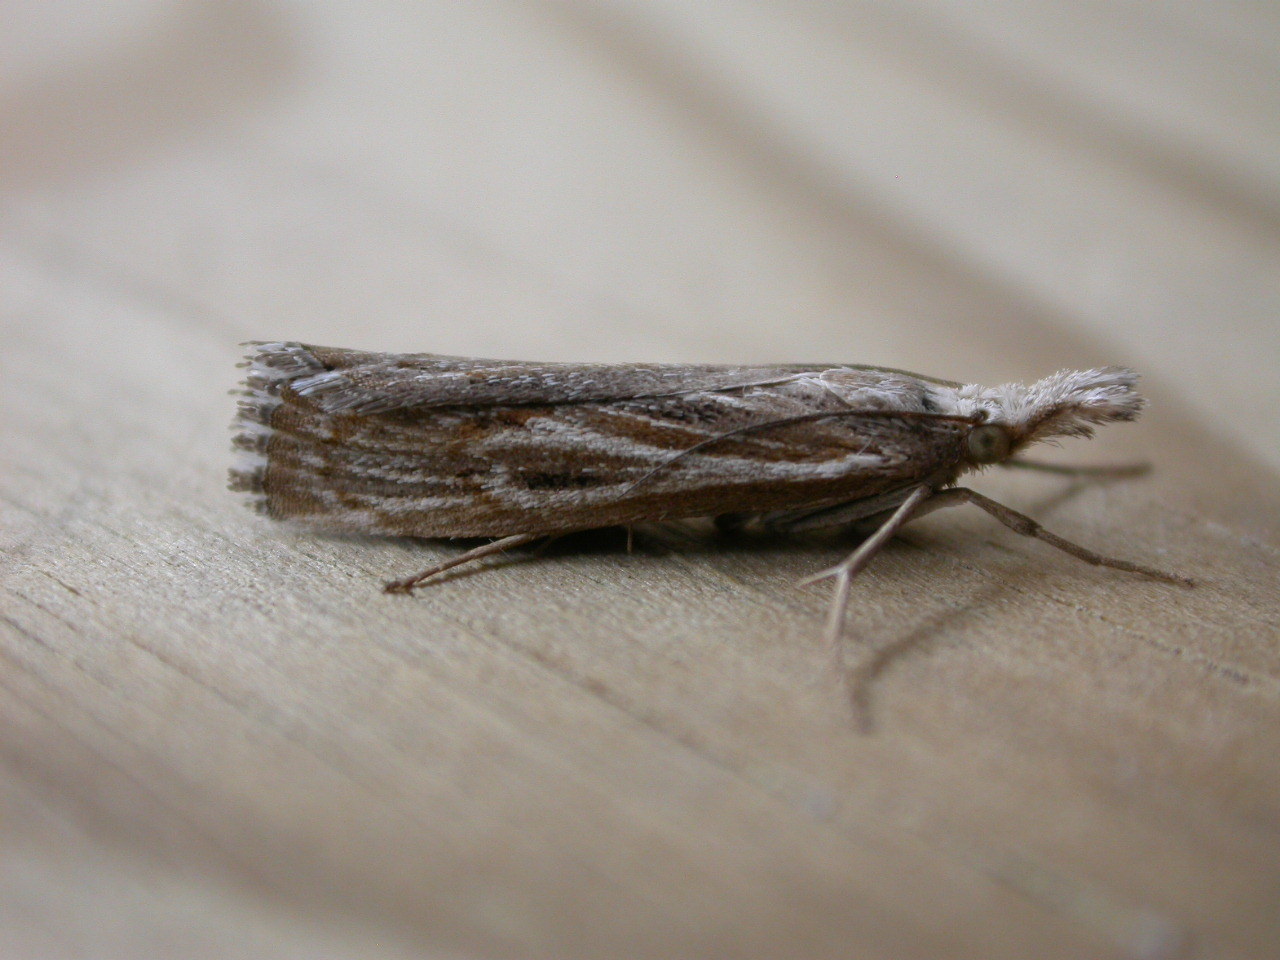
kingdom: Animalia
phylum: Arthropoda
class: Insecta
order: Lepidoptera
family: Crambidae
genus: Pediasia
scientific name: Pediasia fascelinella
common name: Banded grass-veneer
